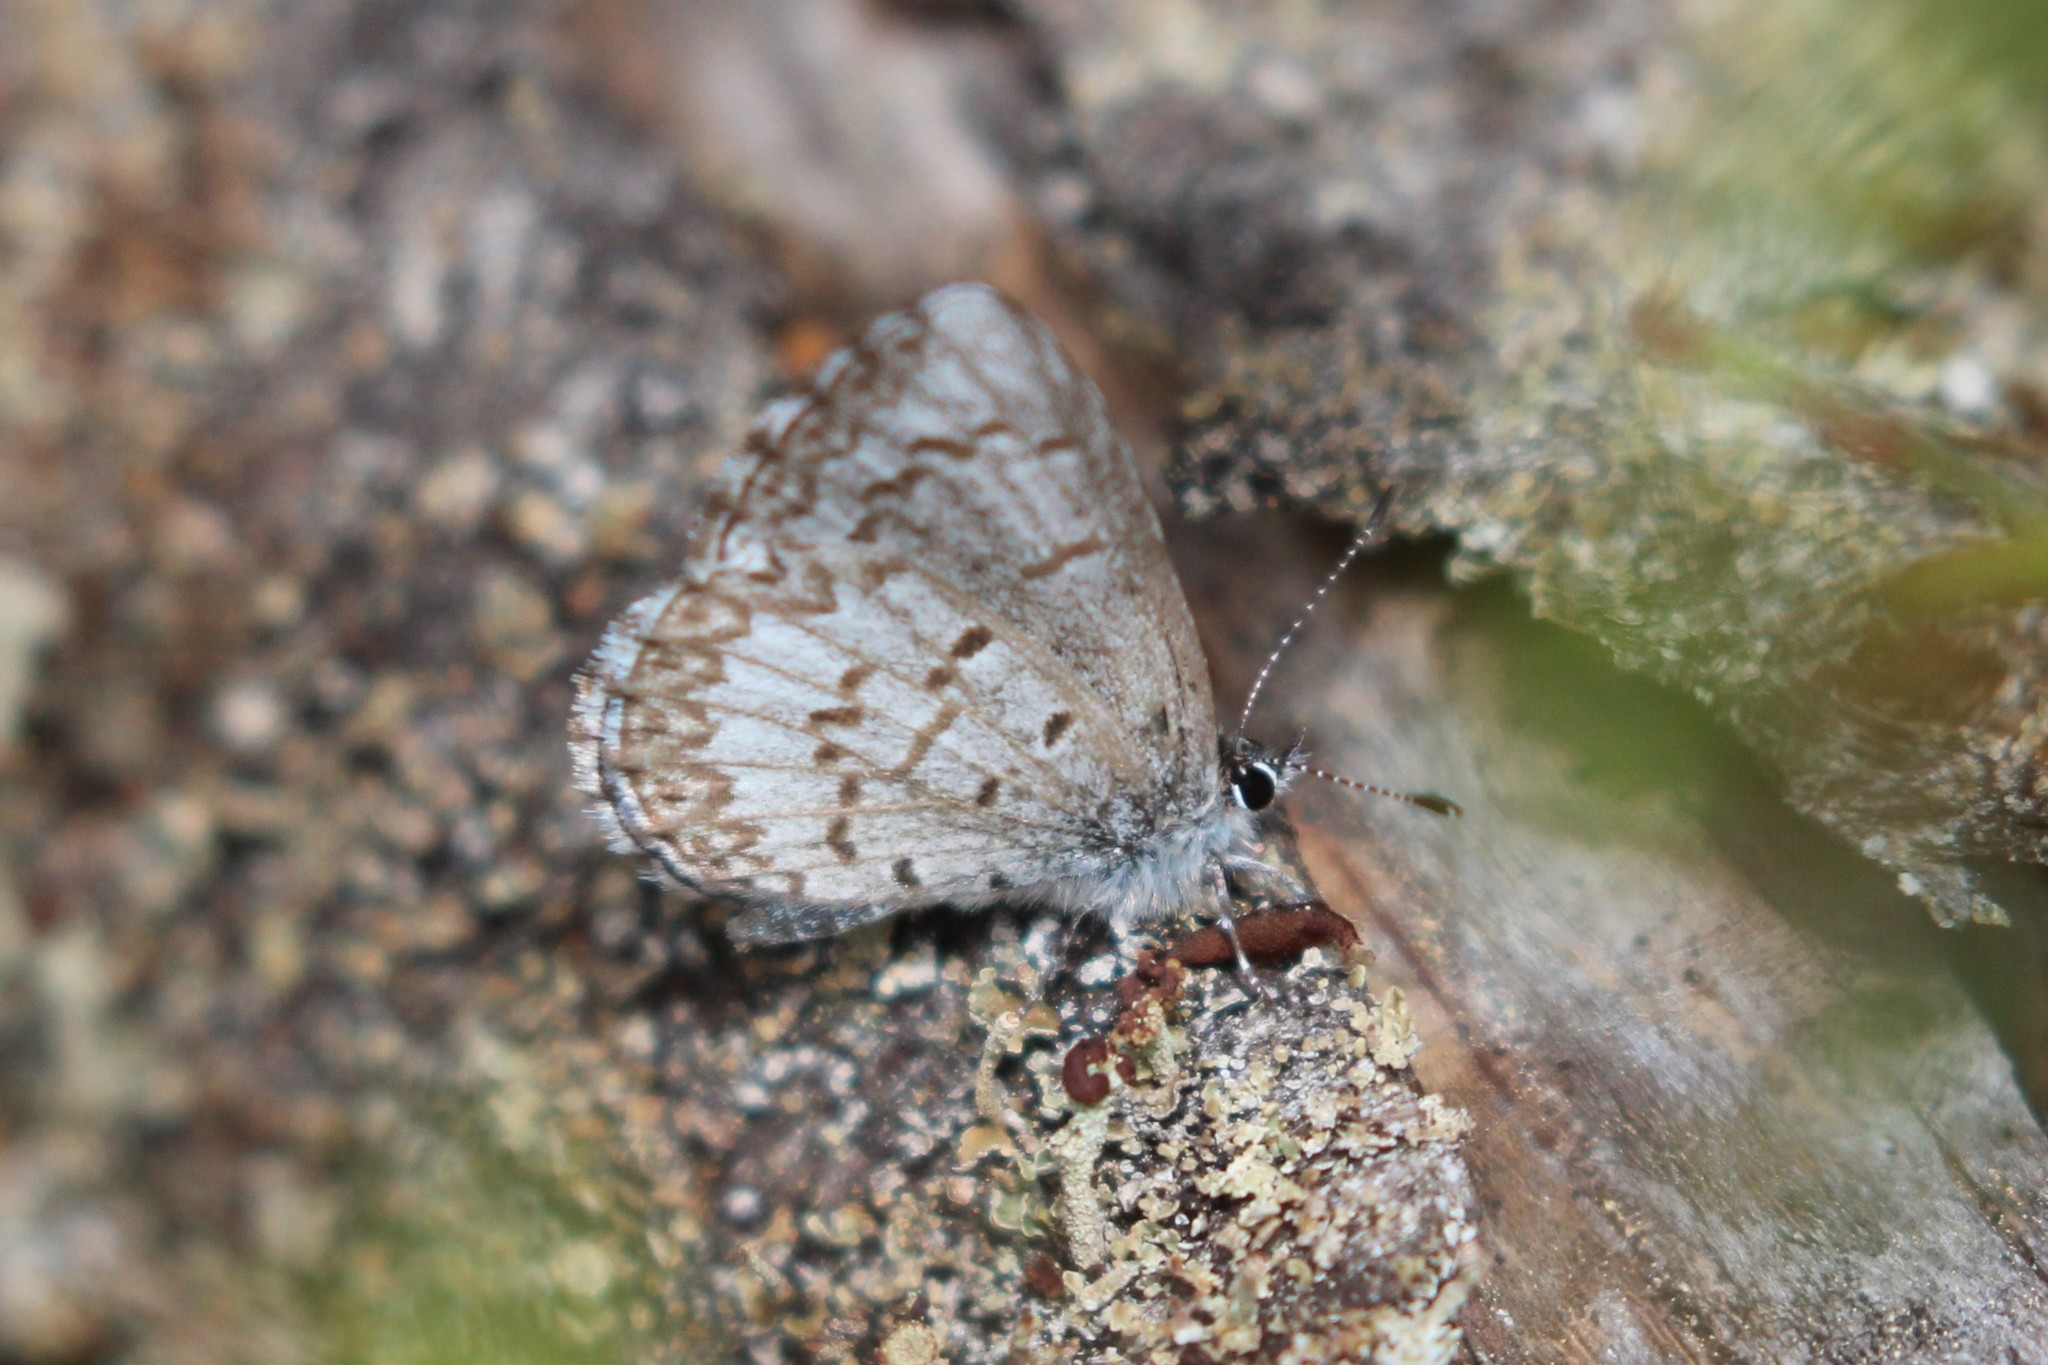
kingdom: Animalia
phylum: Arthropoda
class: Insecta
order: Lepidoptera
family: Lycaenidae
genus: Celastrina
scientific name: Celastrina lucia
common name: Lucia azure
